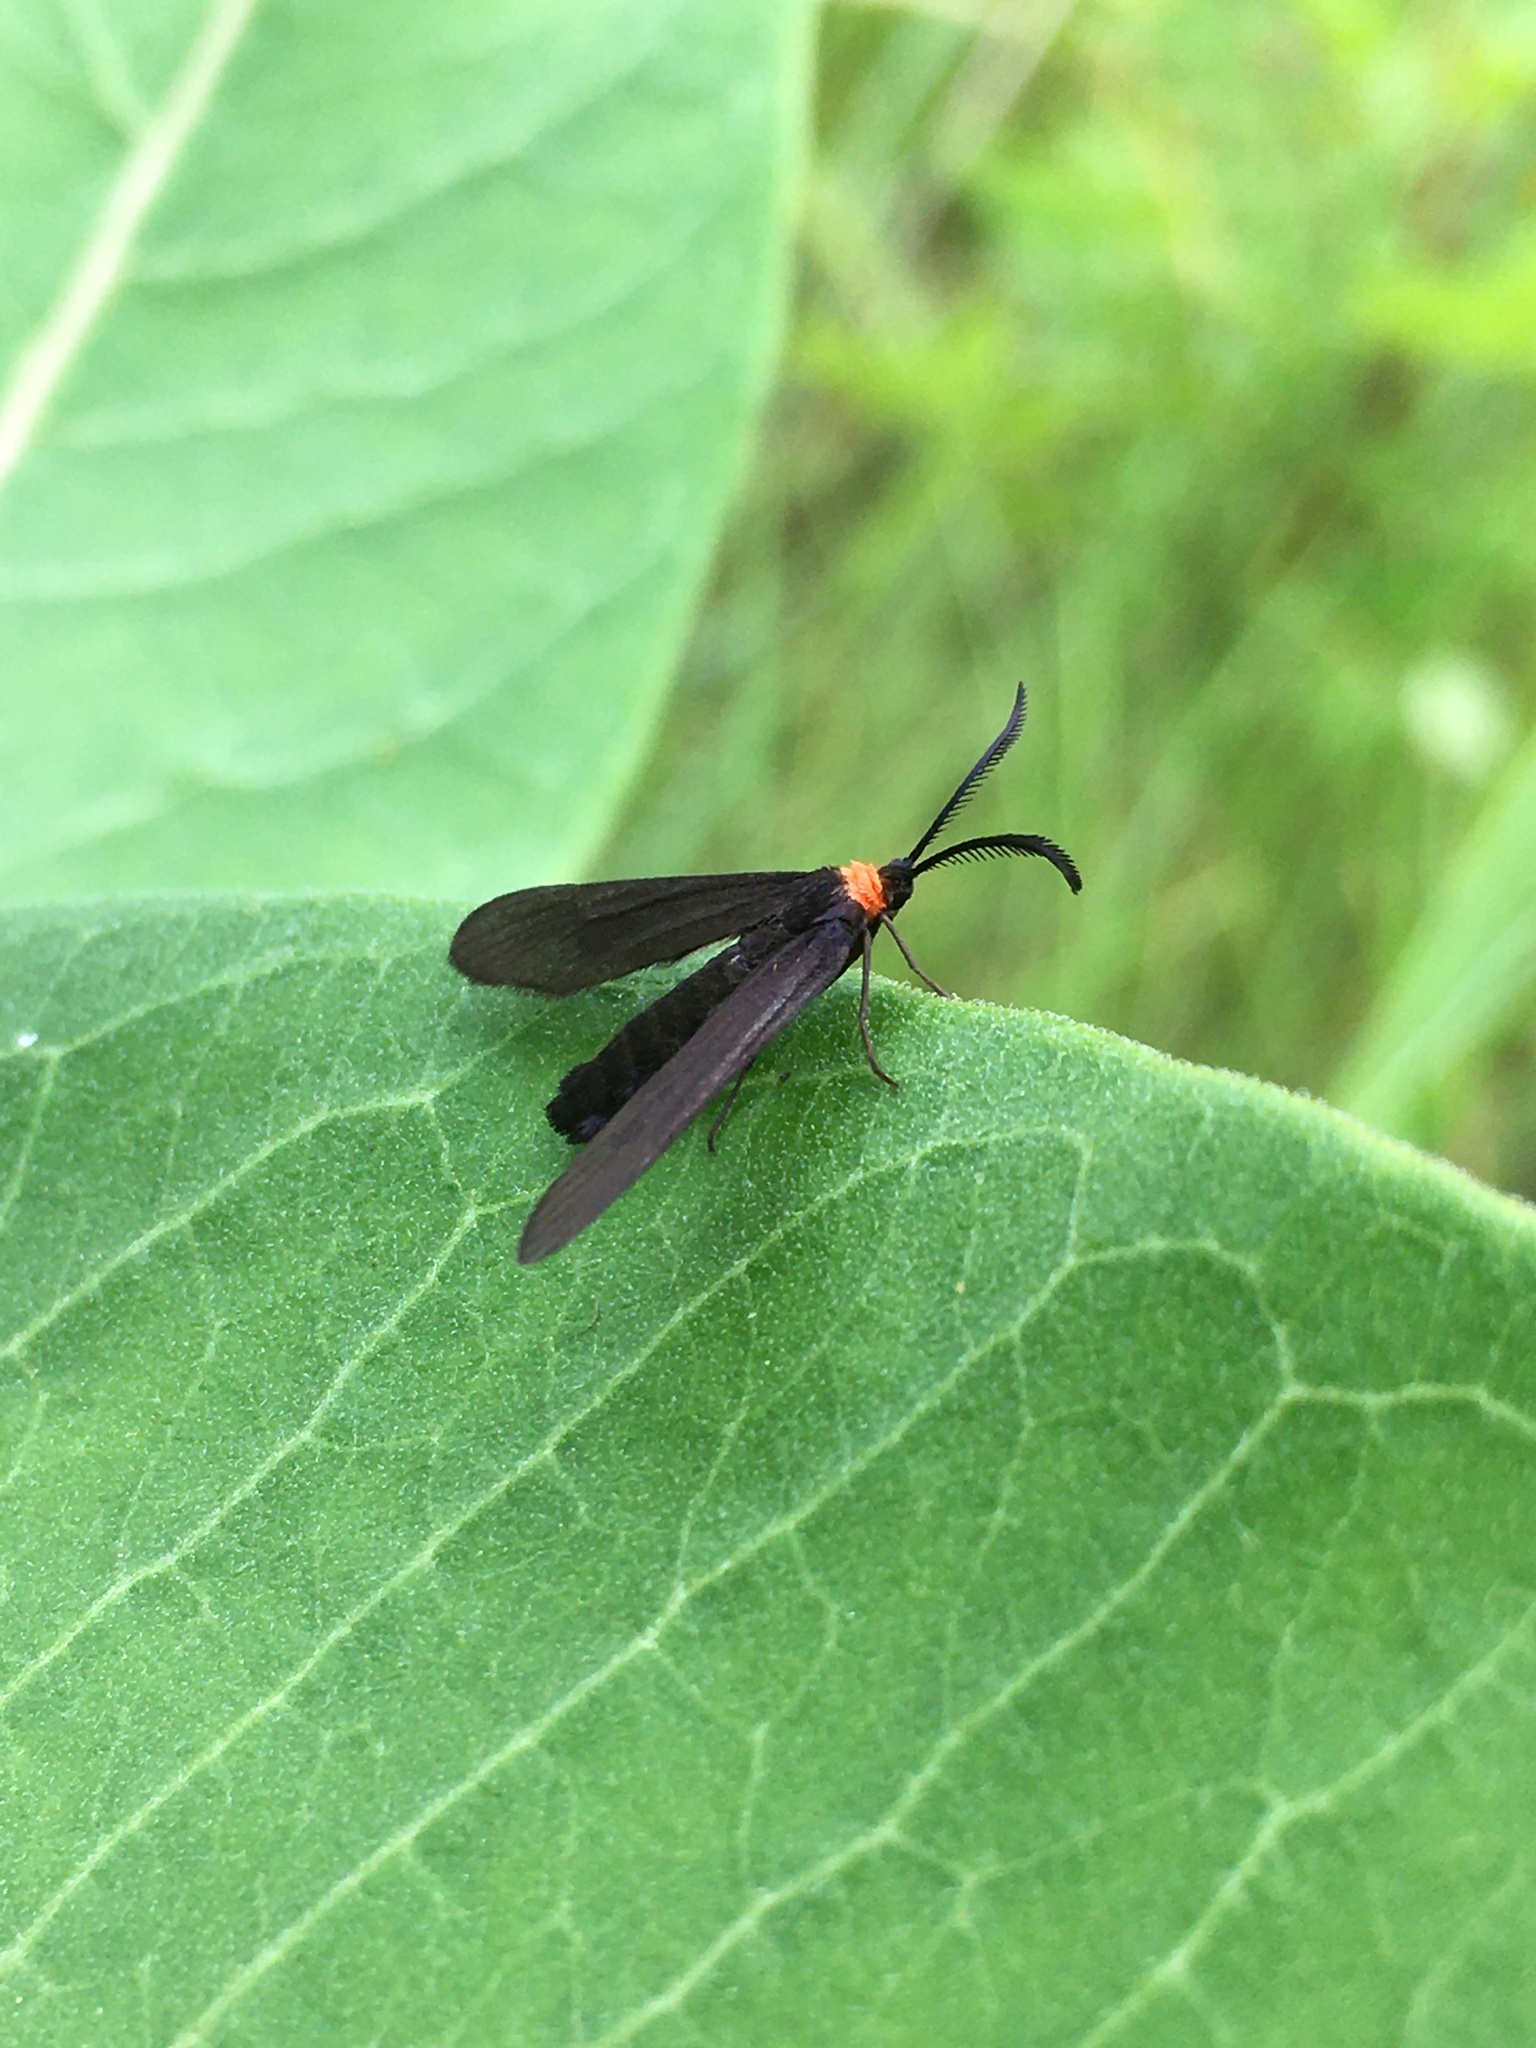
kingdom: Animalia
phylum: Arthropoda
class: Insecta
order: Lepidoptera
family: Zygaenidae
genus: Harrisina
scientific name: Harrisina americana
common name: Grapeleaf skeletonizer moth
